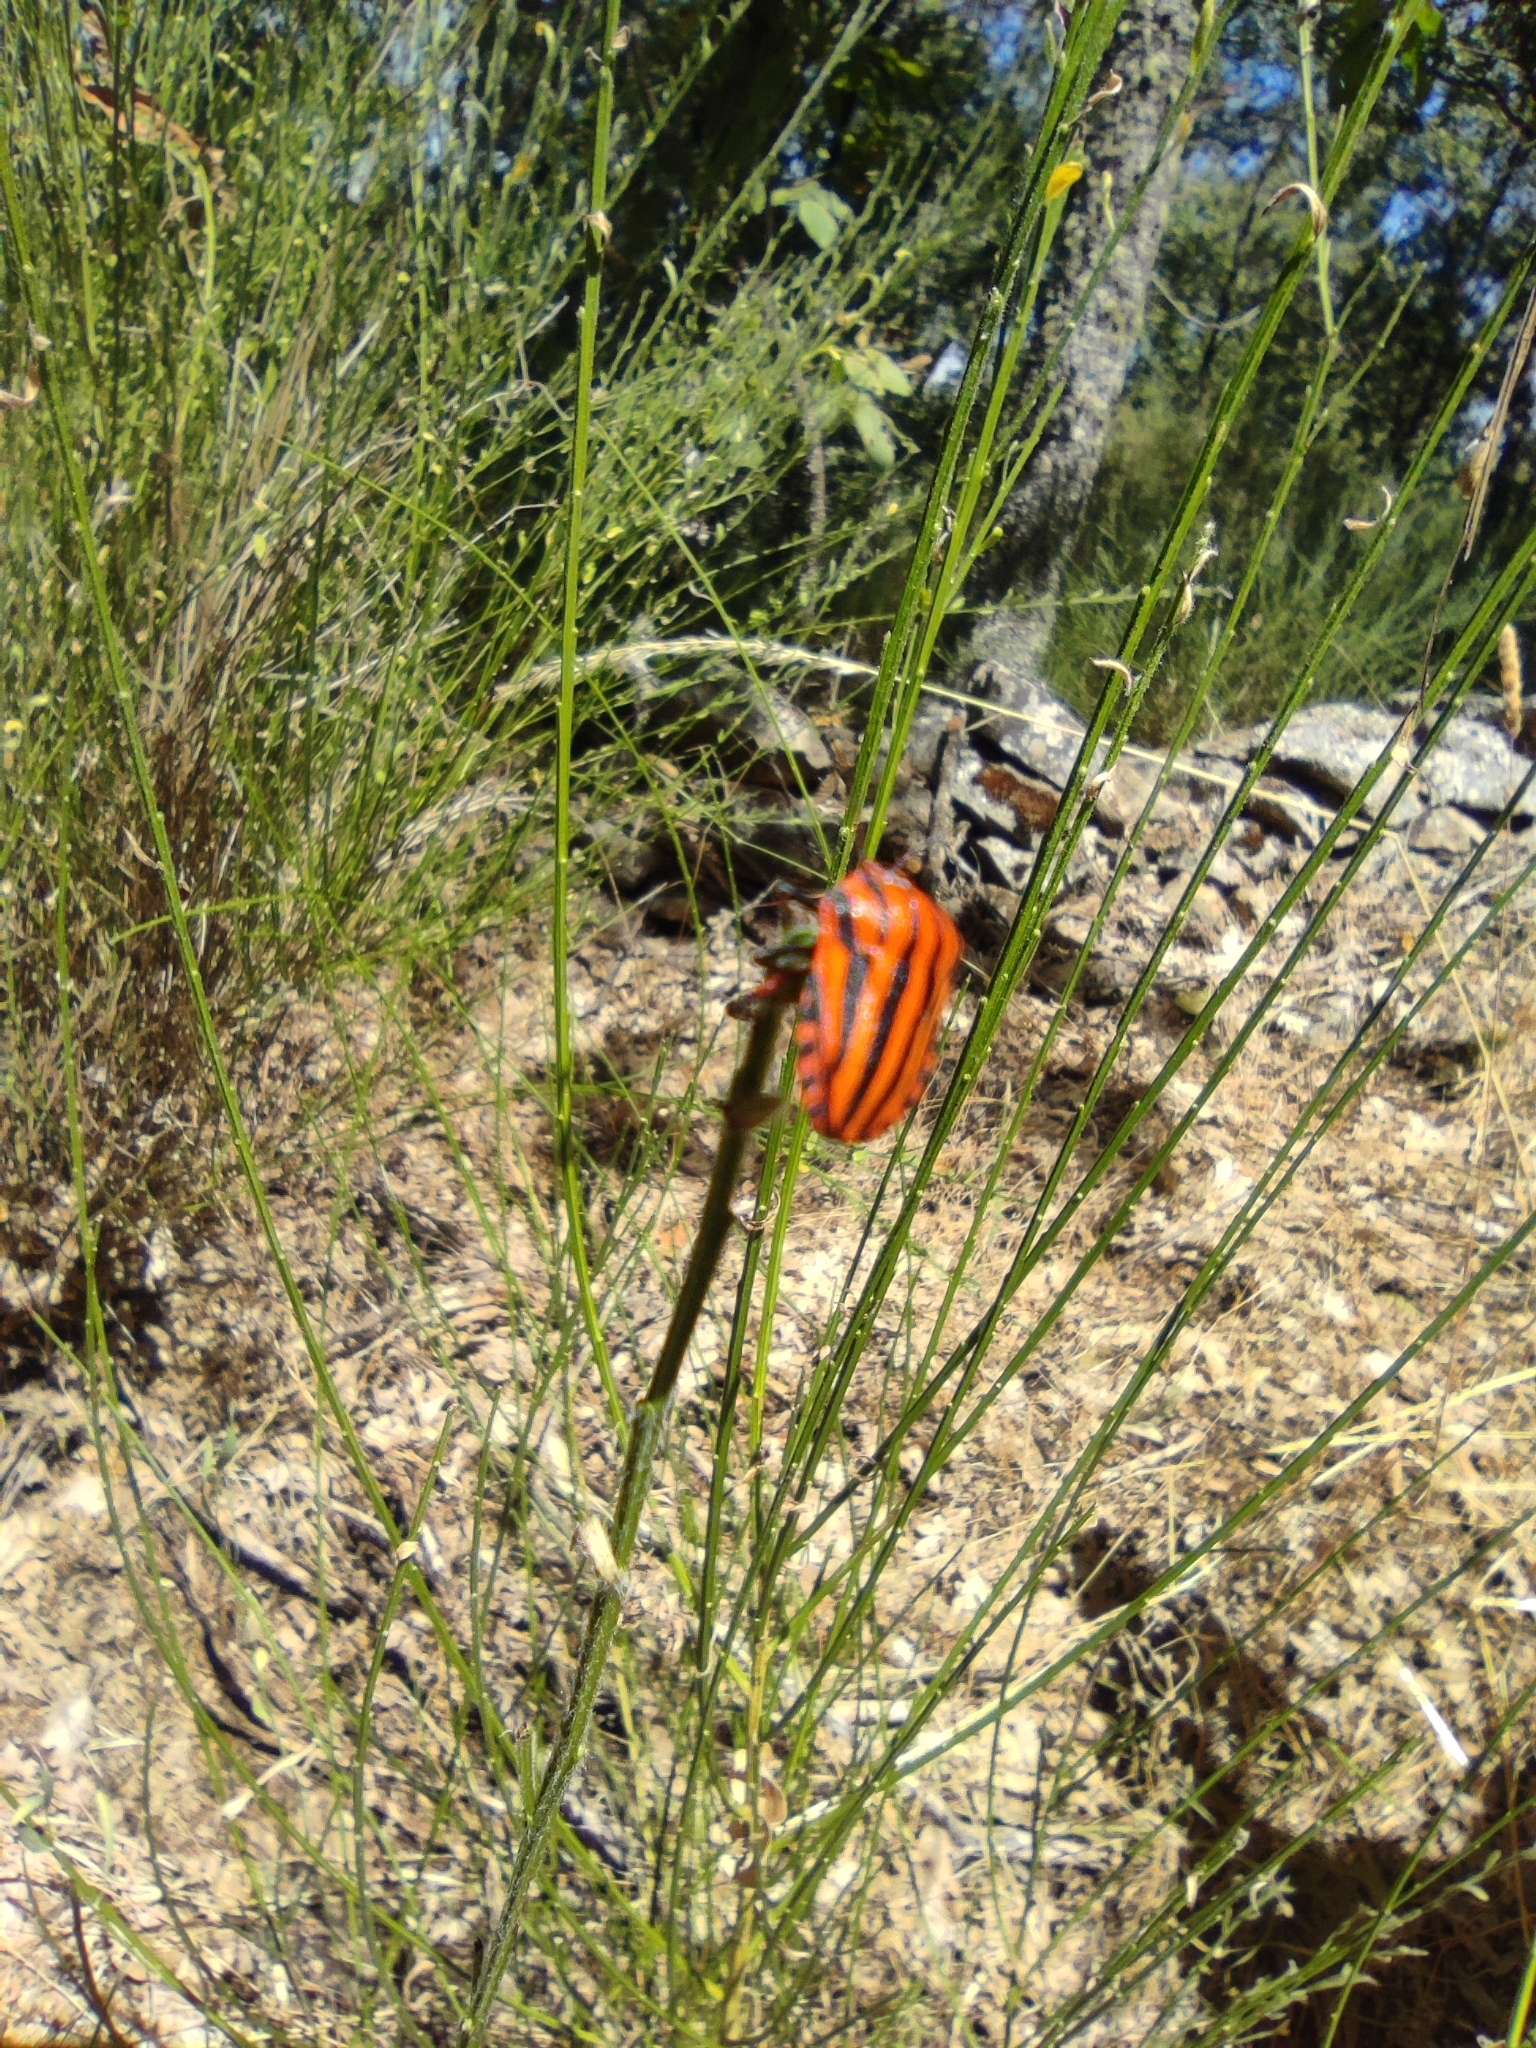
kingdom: Animalia
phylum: Arthropoda
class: Insecta
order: Hemiptera
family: Pentatomidae
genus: Graphosoma
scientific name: Graphosoma italicum
